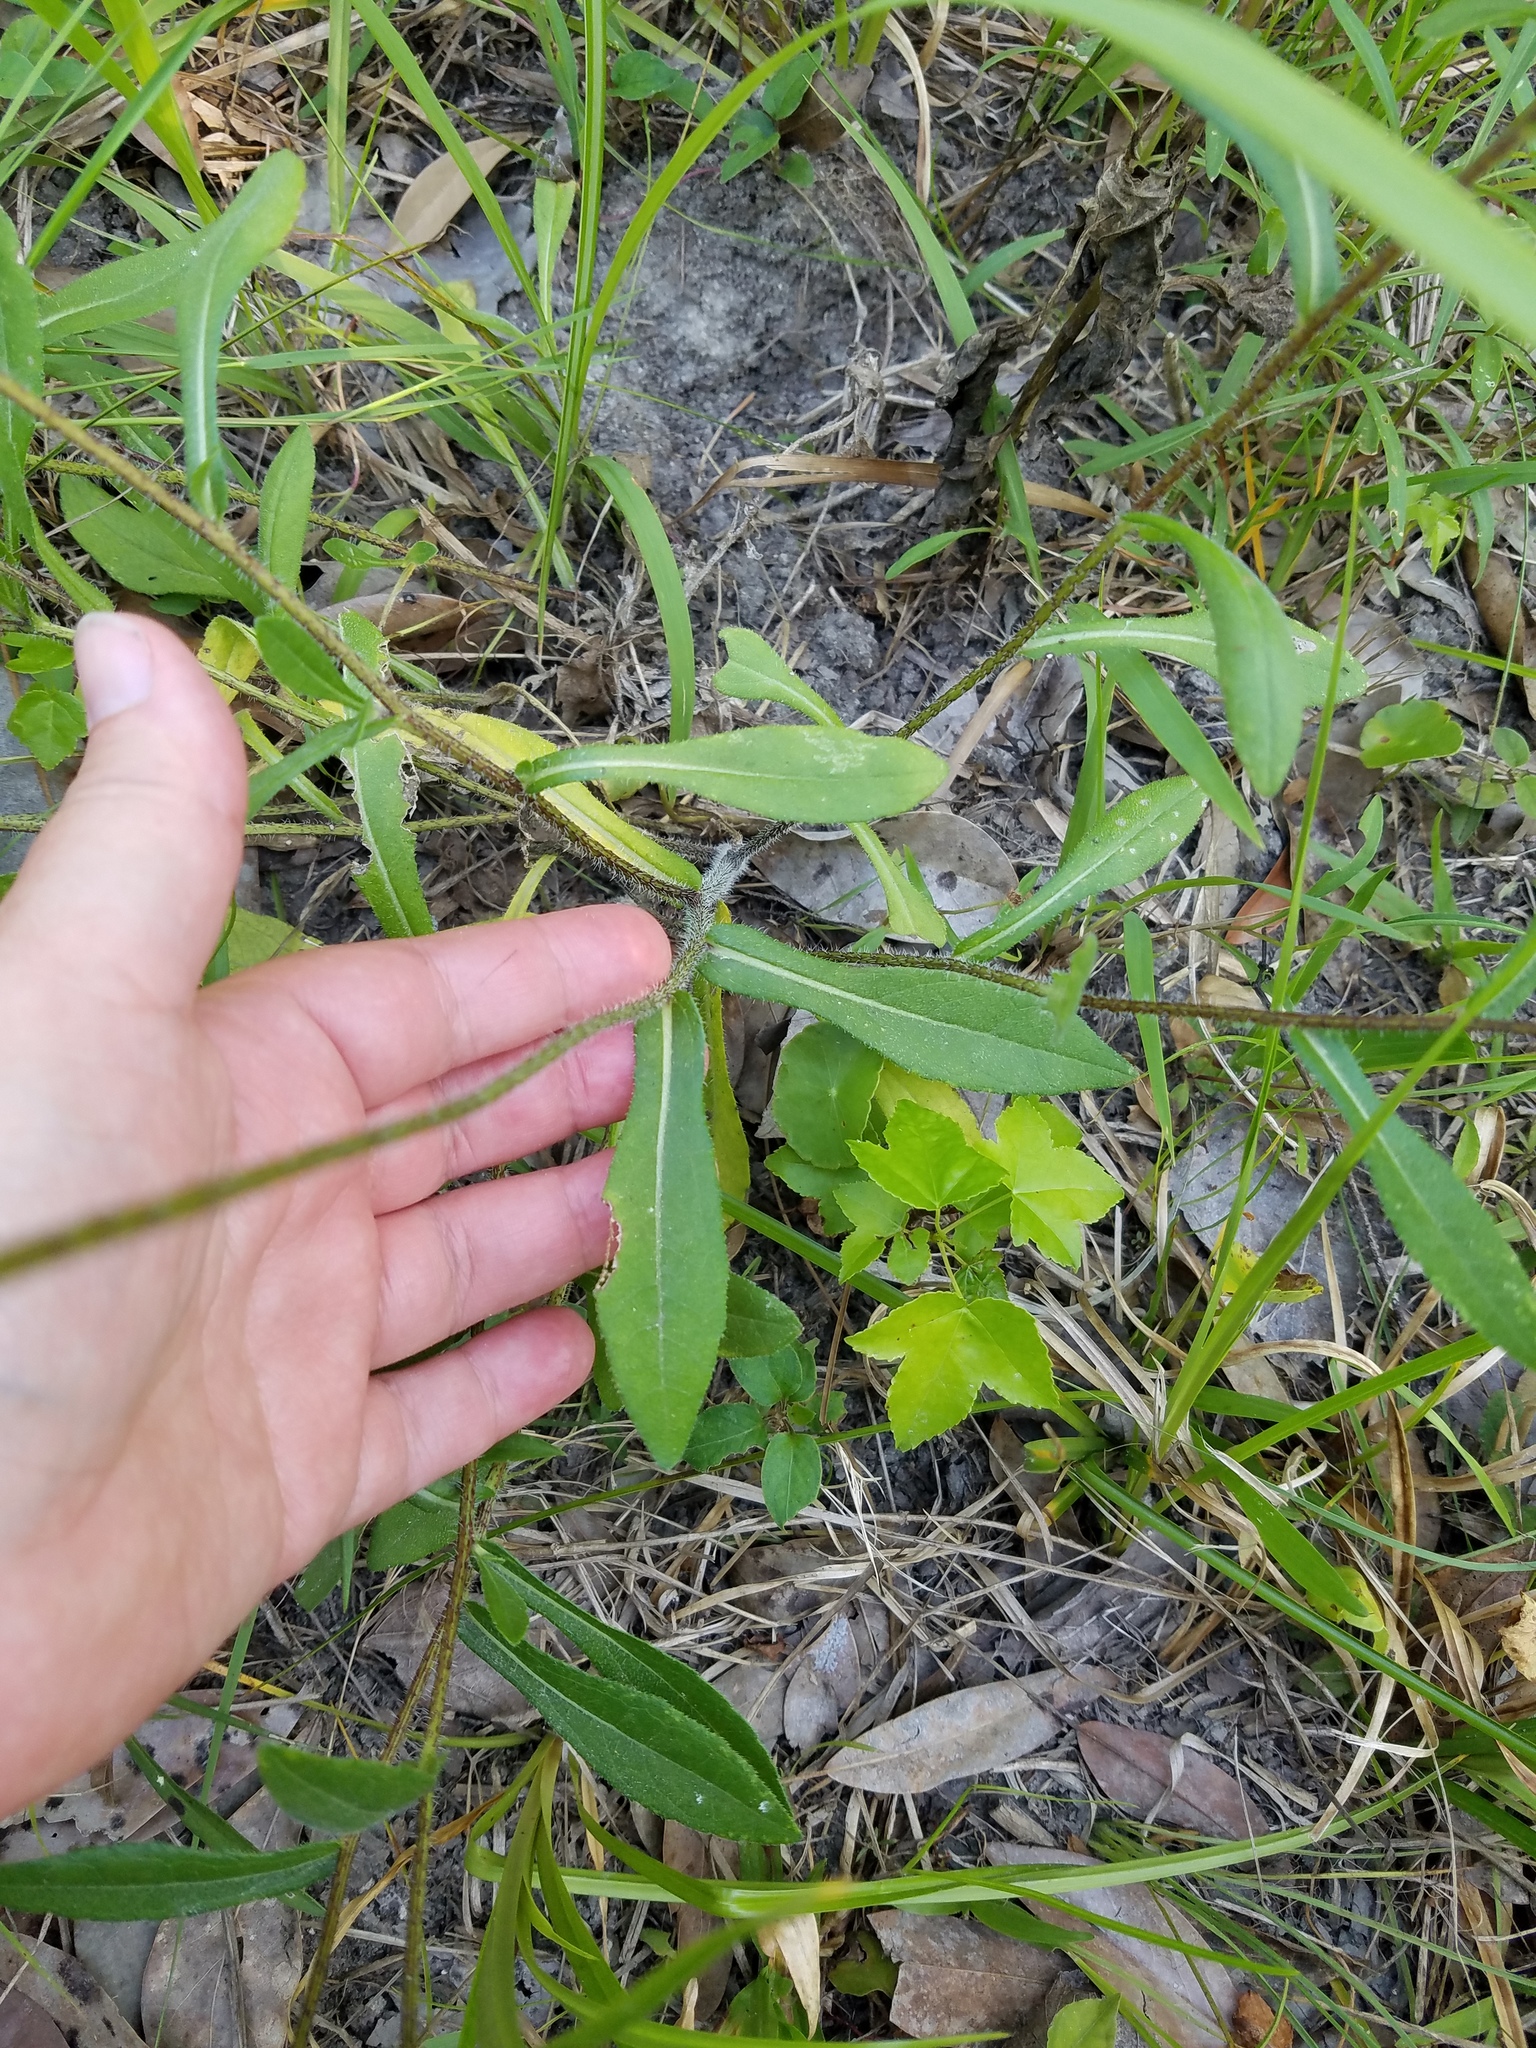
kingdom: Plantae
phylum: Tracheophyta
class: Magnoliopsida
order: Asterales
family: Asteraceae
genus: Rudbeckia
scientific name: Rudbeckia hirta
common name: Black-eyed-susan
